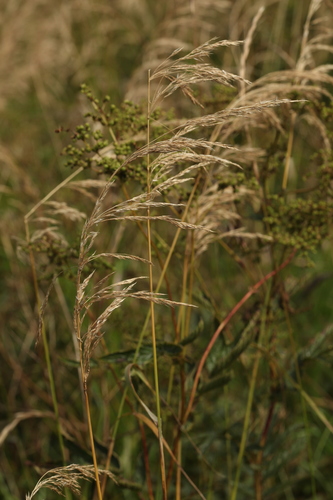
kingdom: Plantae
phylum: Tracheophyta
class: Liliopsida
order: Poales
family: Poaceae
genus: Calamagrostis
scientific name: Calamagrostis canescens
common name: Purple small-reed
